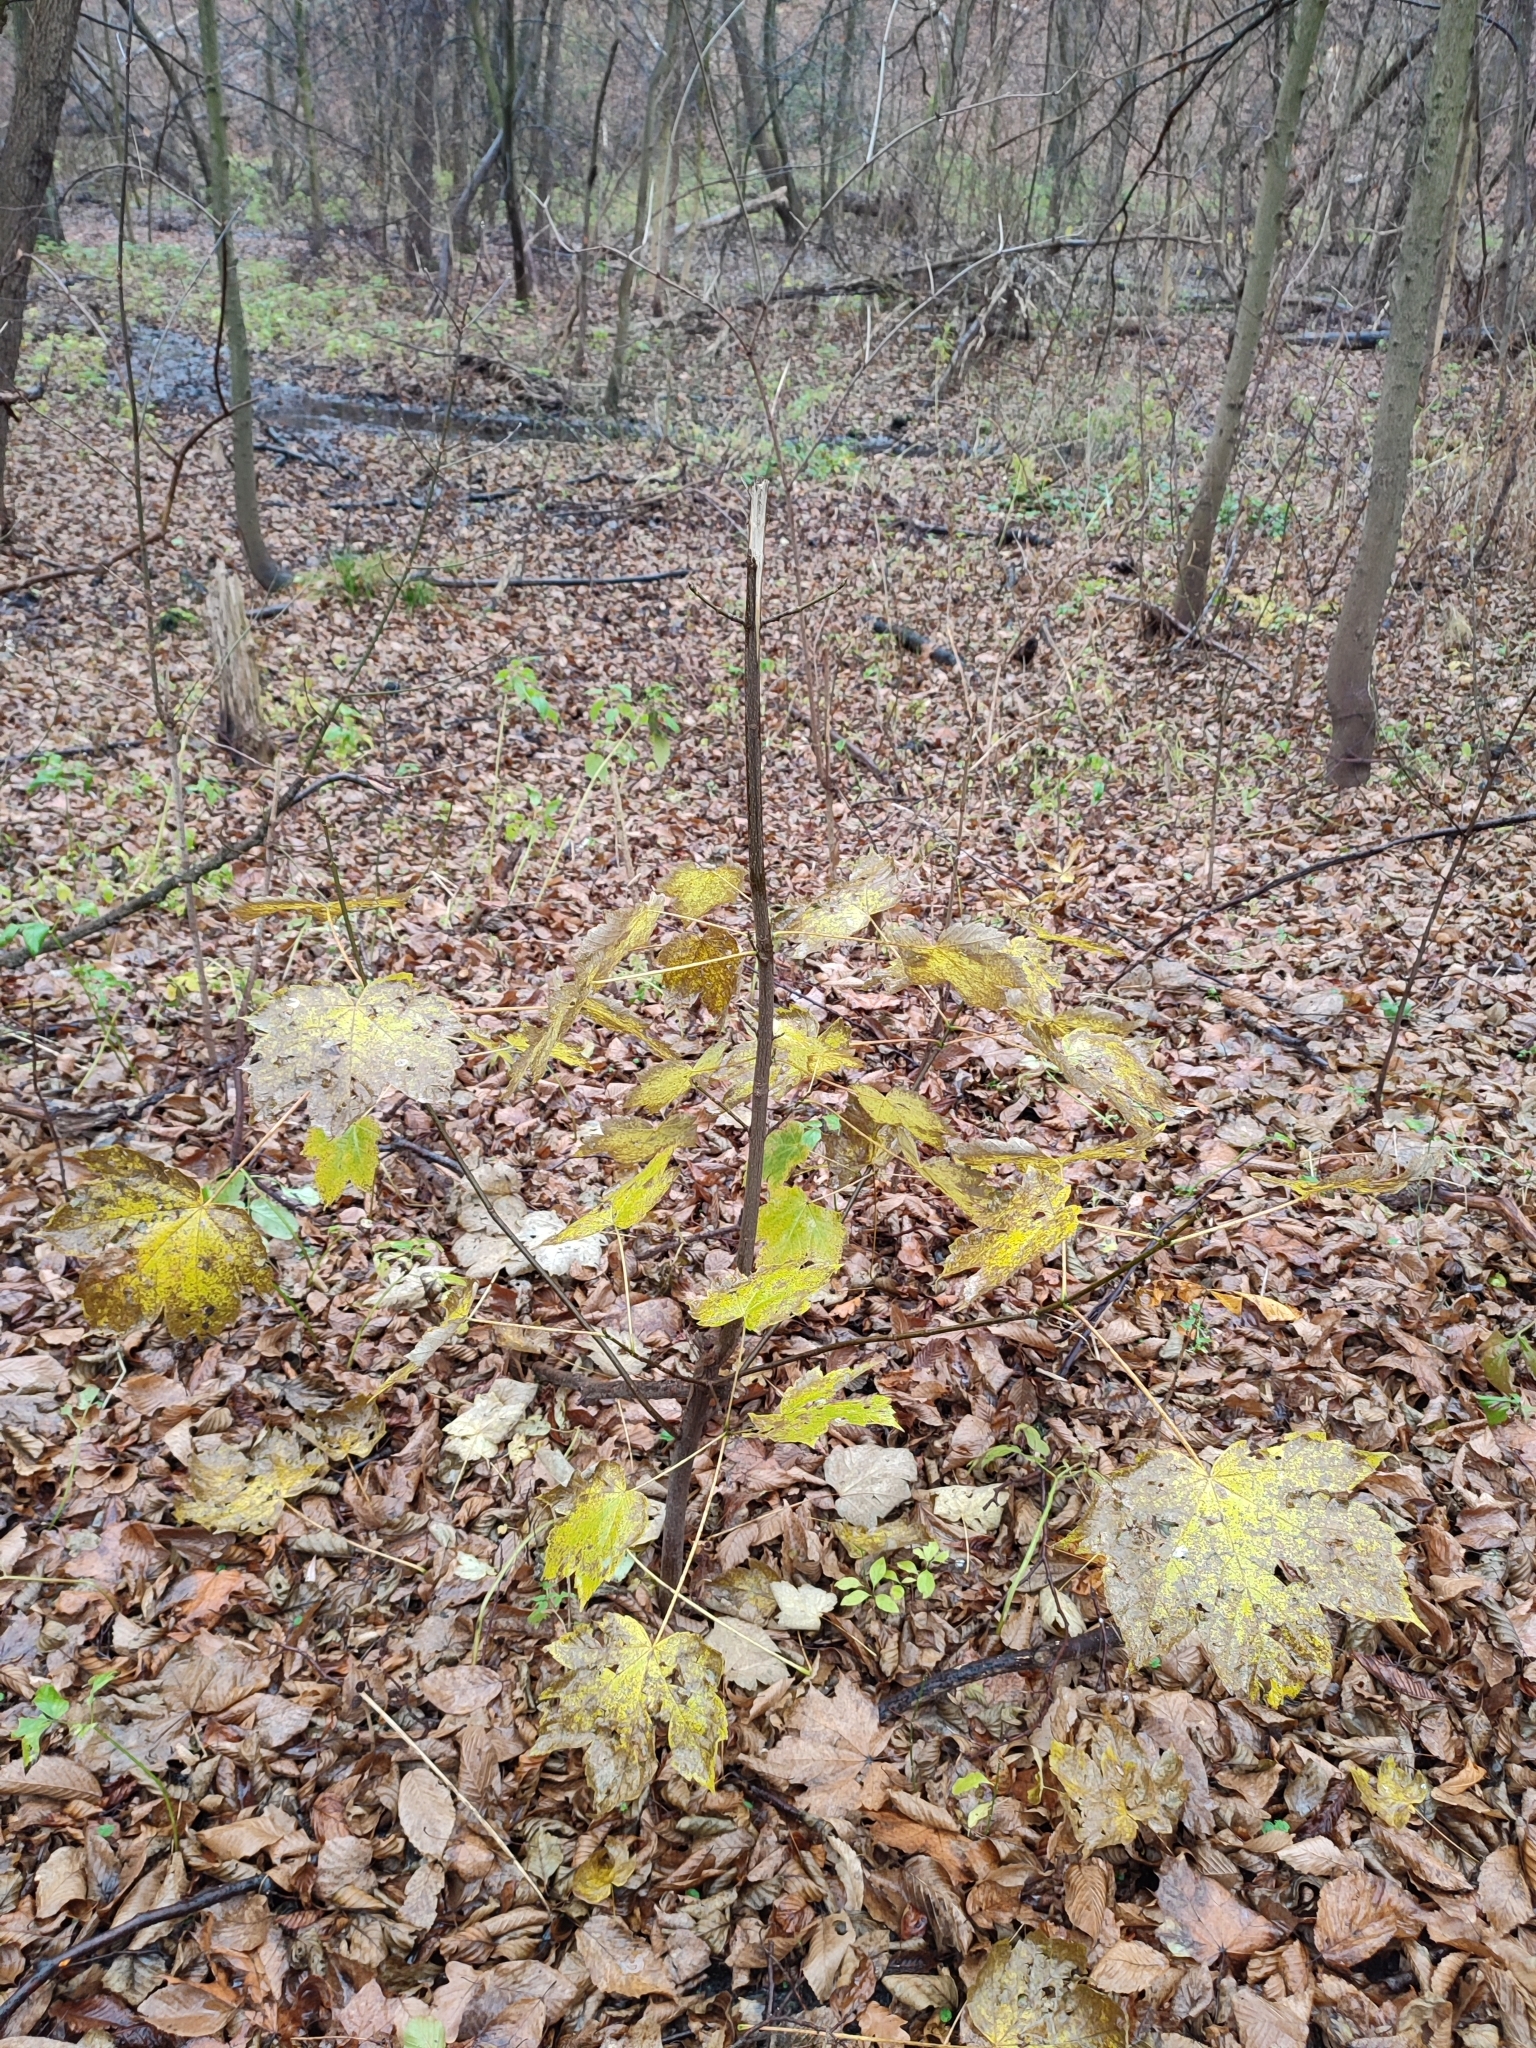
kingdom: Plantae
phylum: Tracheophyta
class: Magnoliopsida
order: Sapindales
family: Sapindaceae
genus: Acer
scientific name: Acer platanoides
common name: Norway maple
